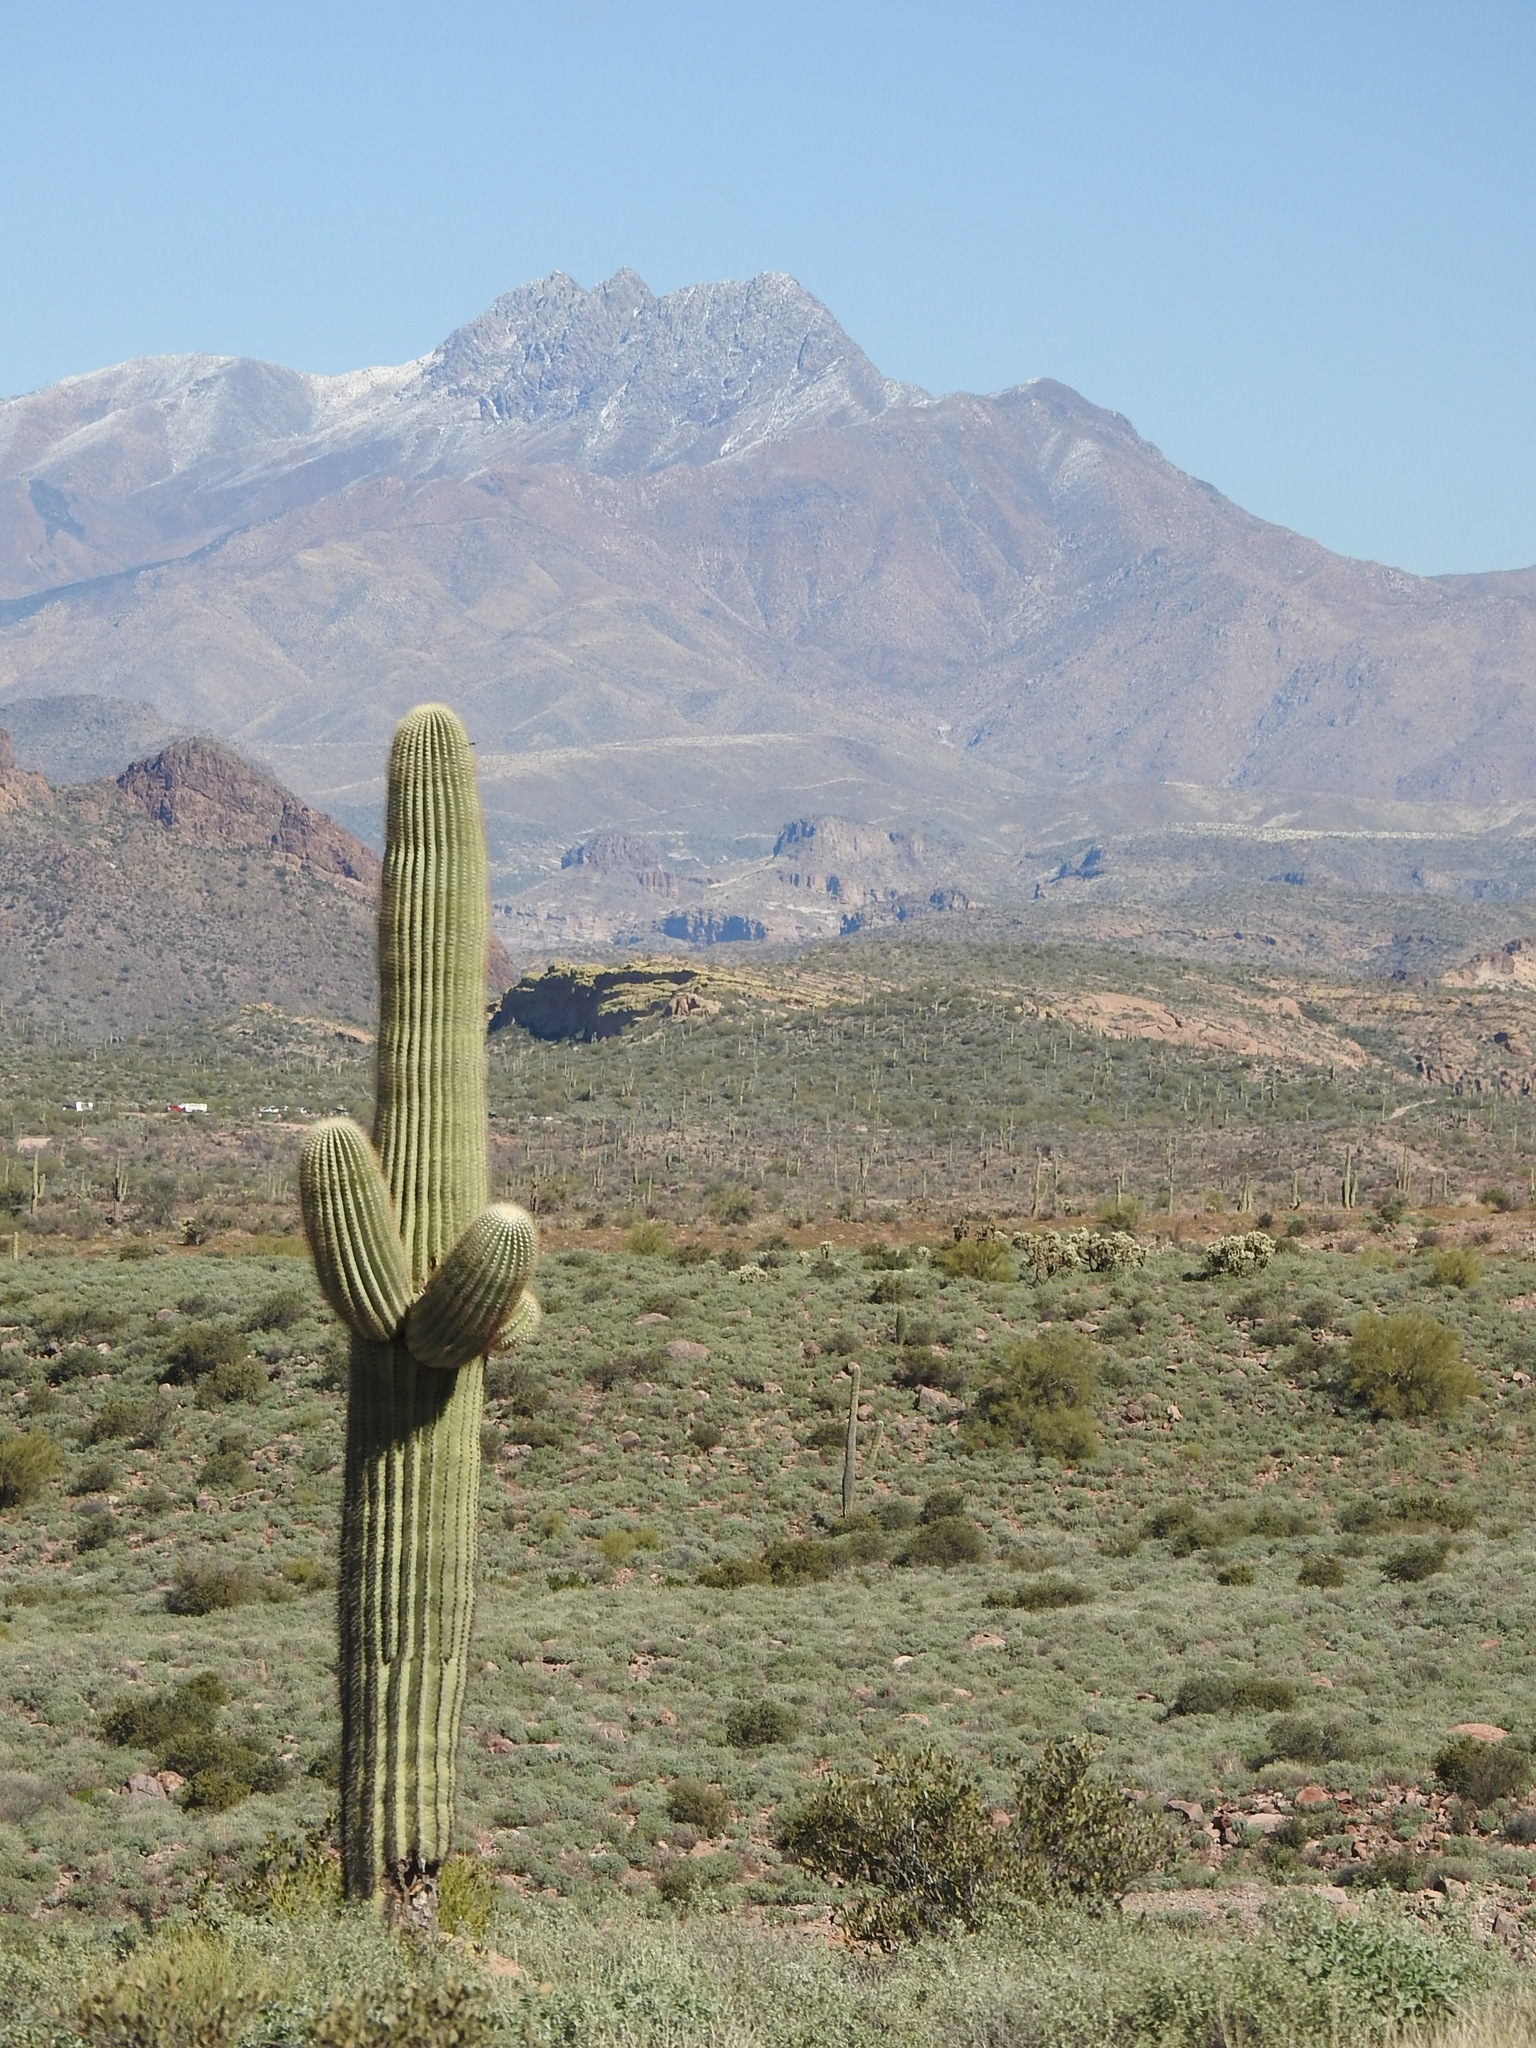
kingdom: Plantae
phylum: Tracheophyta
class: Magnoliopsida
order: Caryophyllales
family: Cactaceae
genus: Carnegiea
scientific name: Carnegiea gigantea
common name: Saguaro
